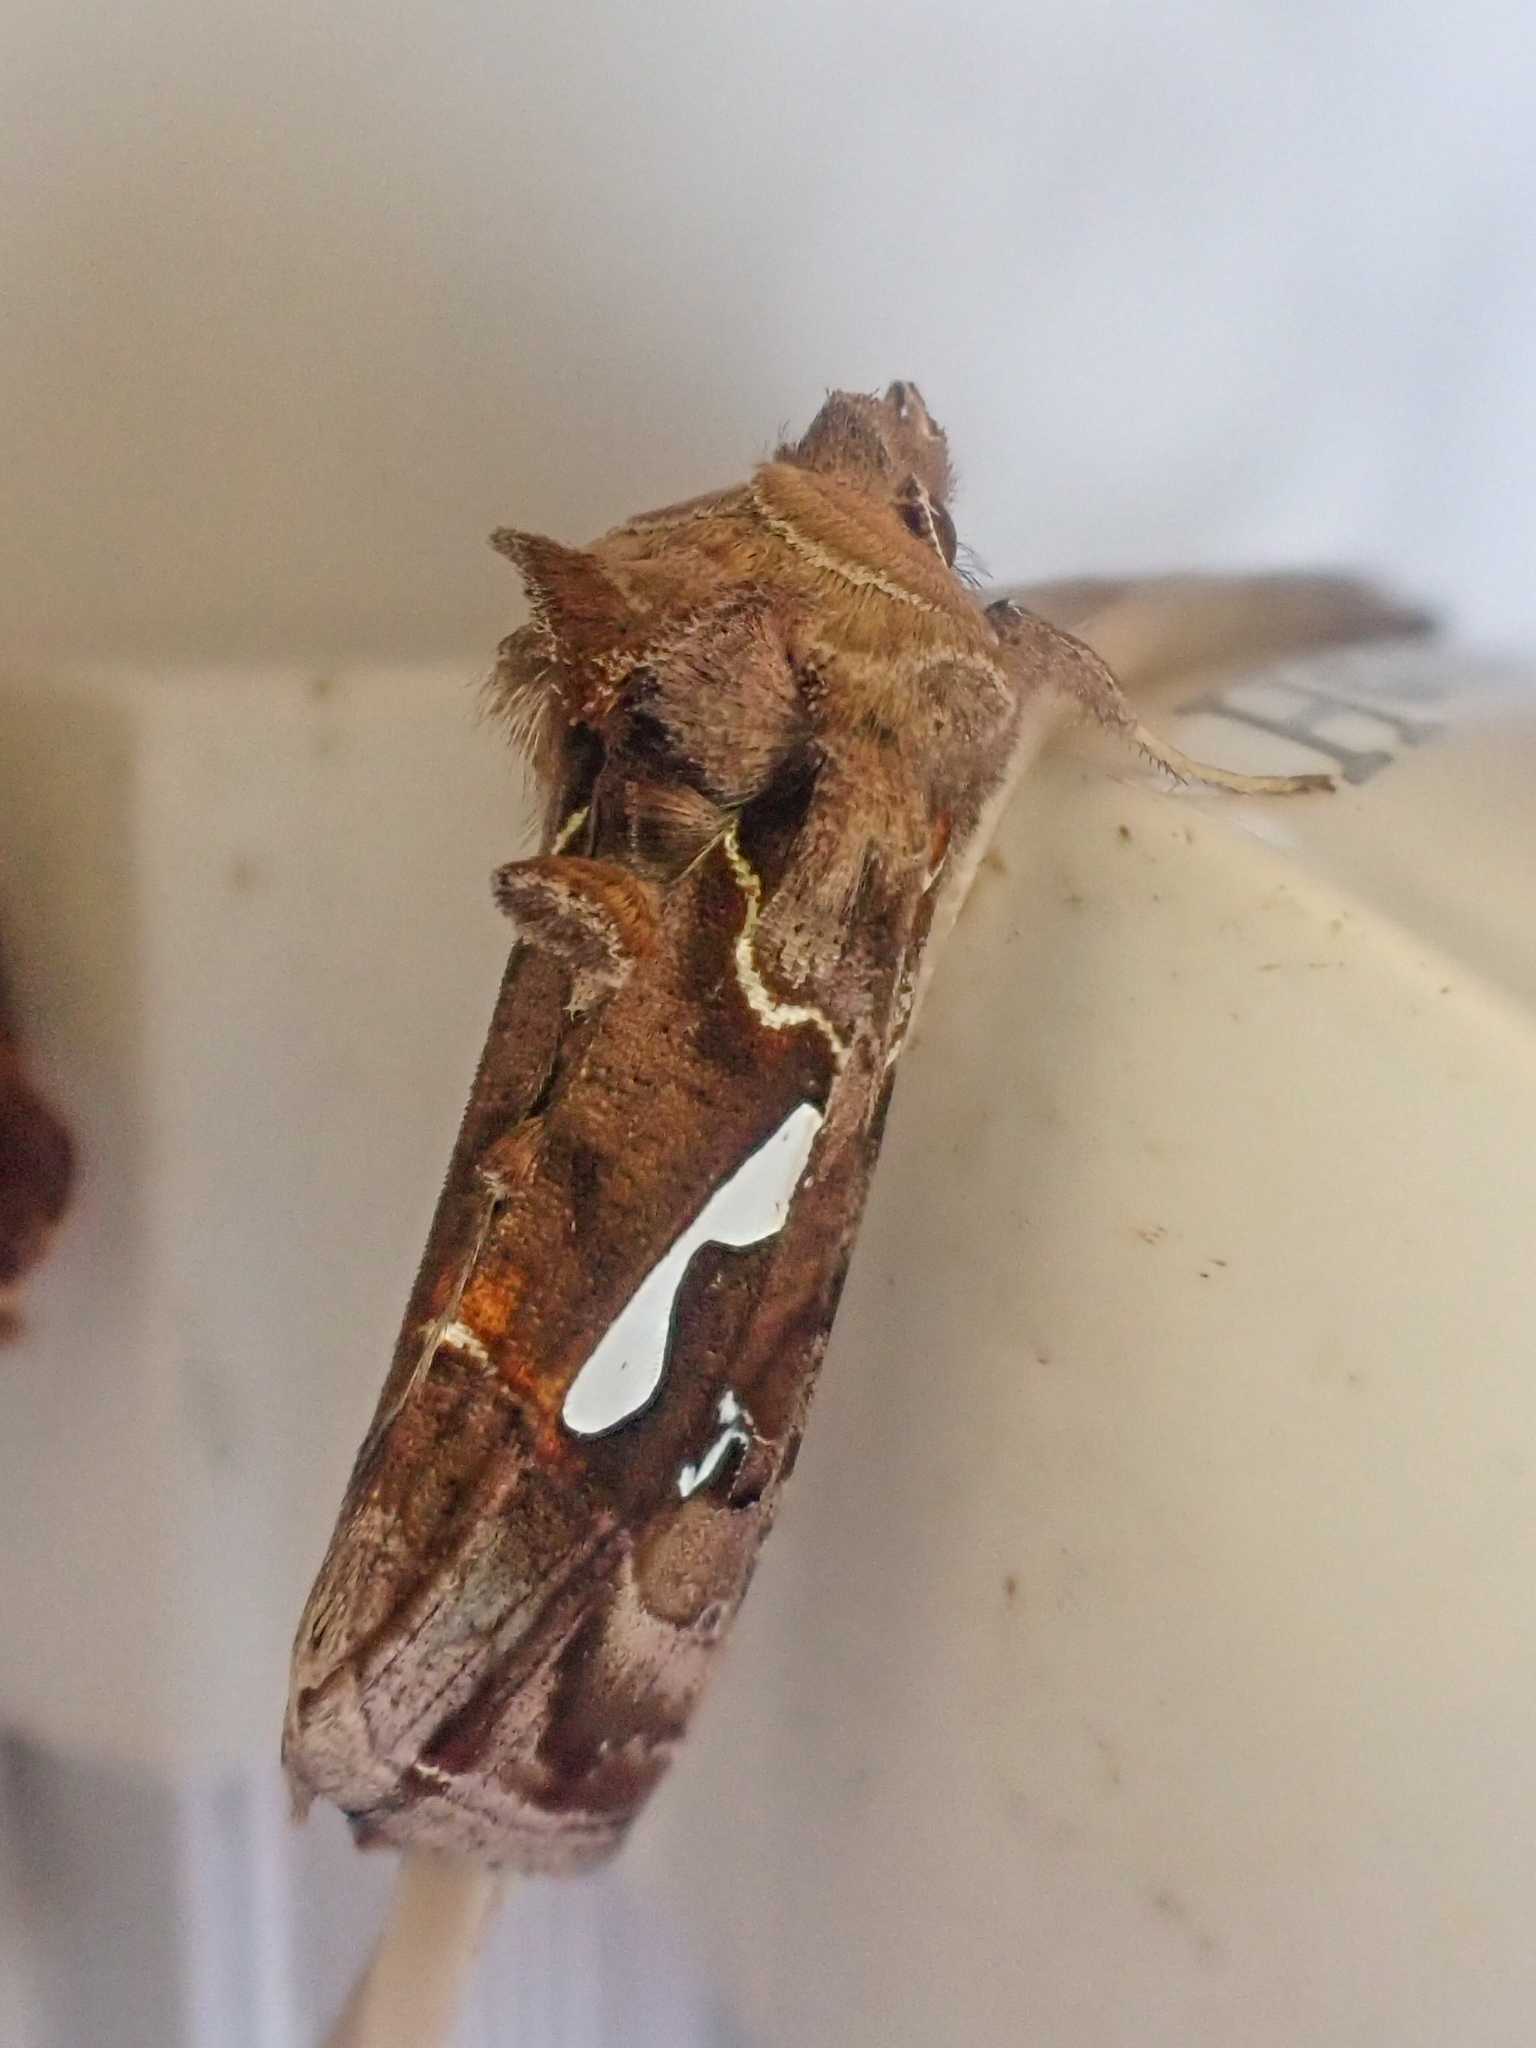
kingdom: Animalia
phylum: Arthropoda
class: Insecta
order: Lepidoptera
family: Noctuidae
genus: Megalographa
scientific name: Megalographa biloba
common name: Cutworm
